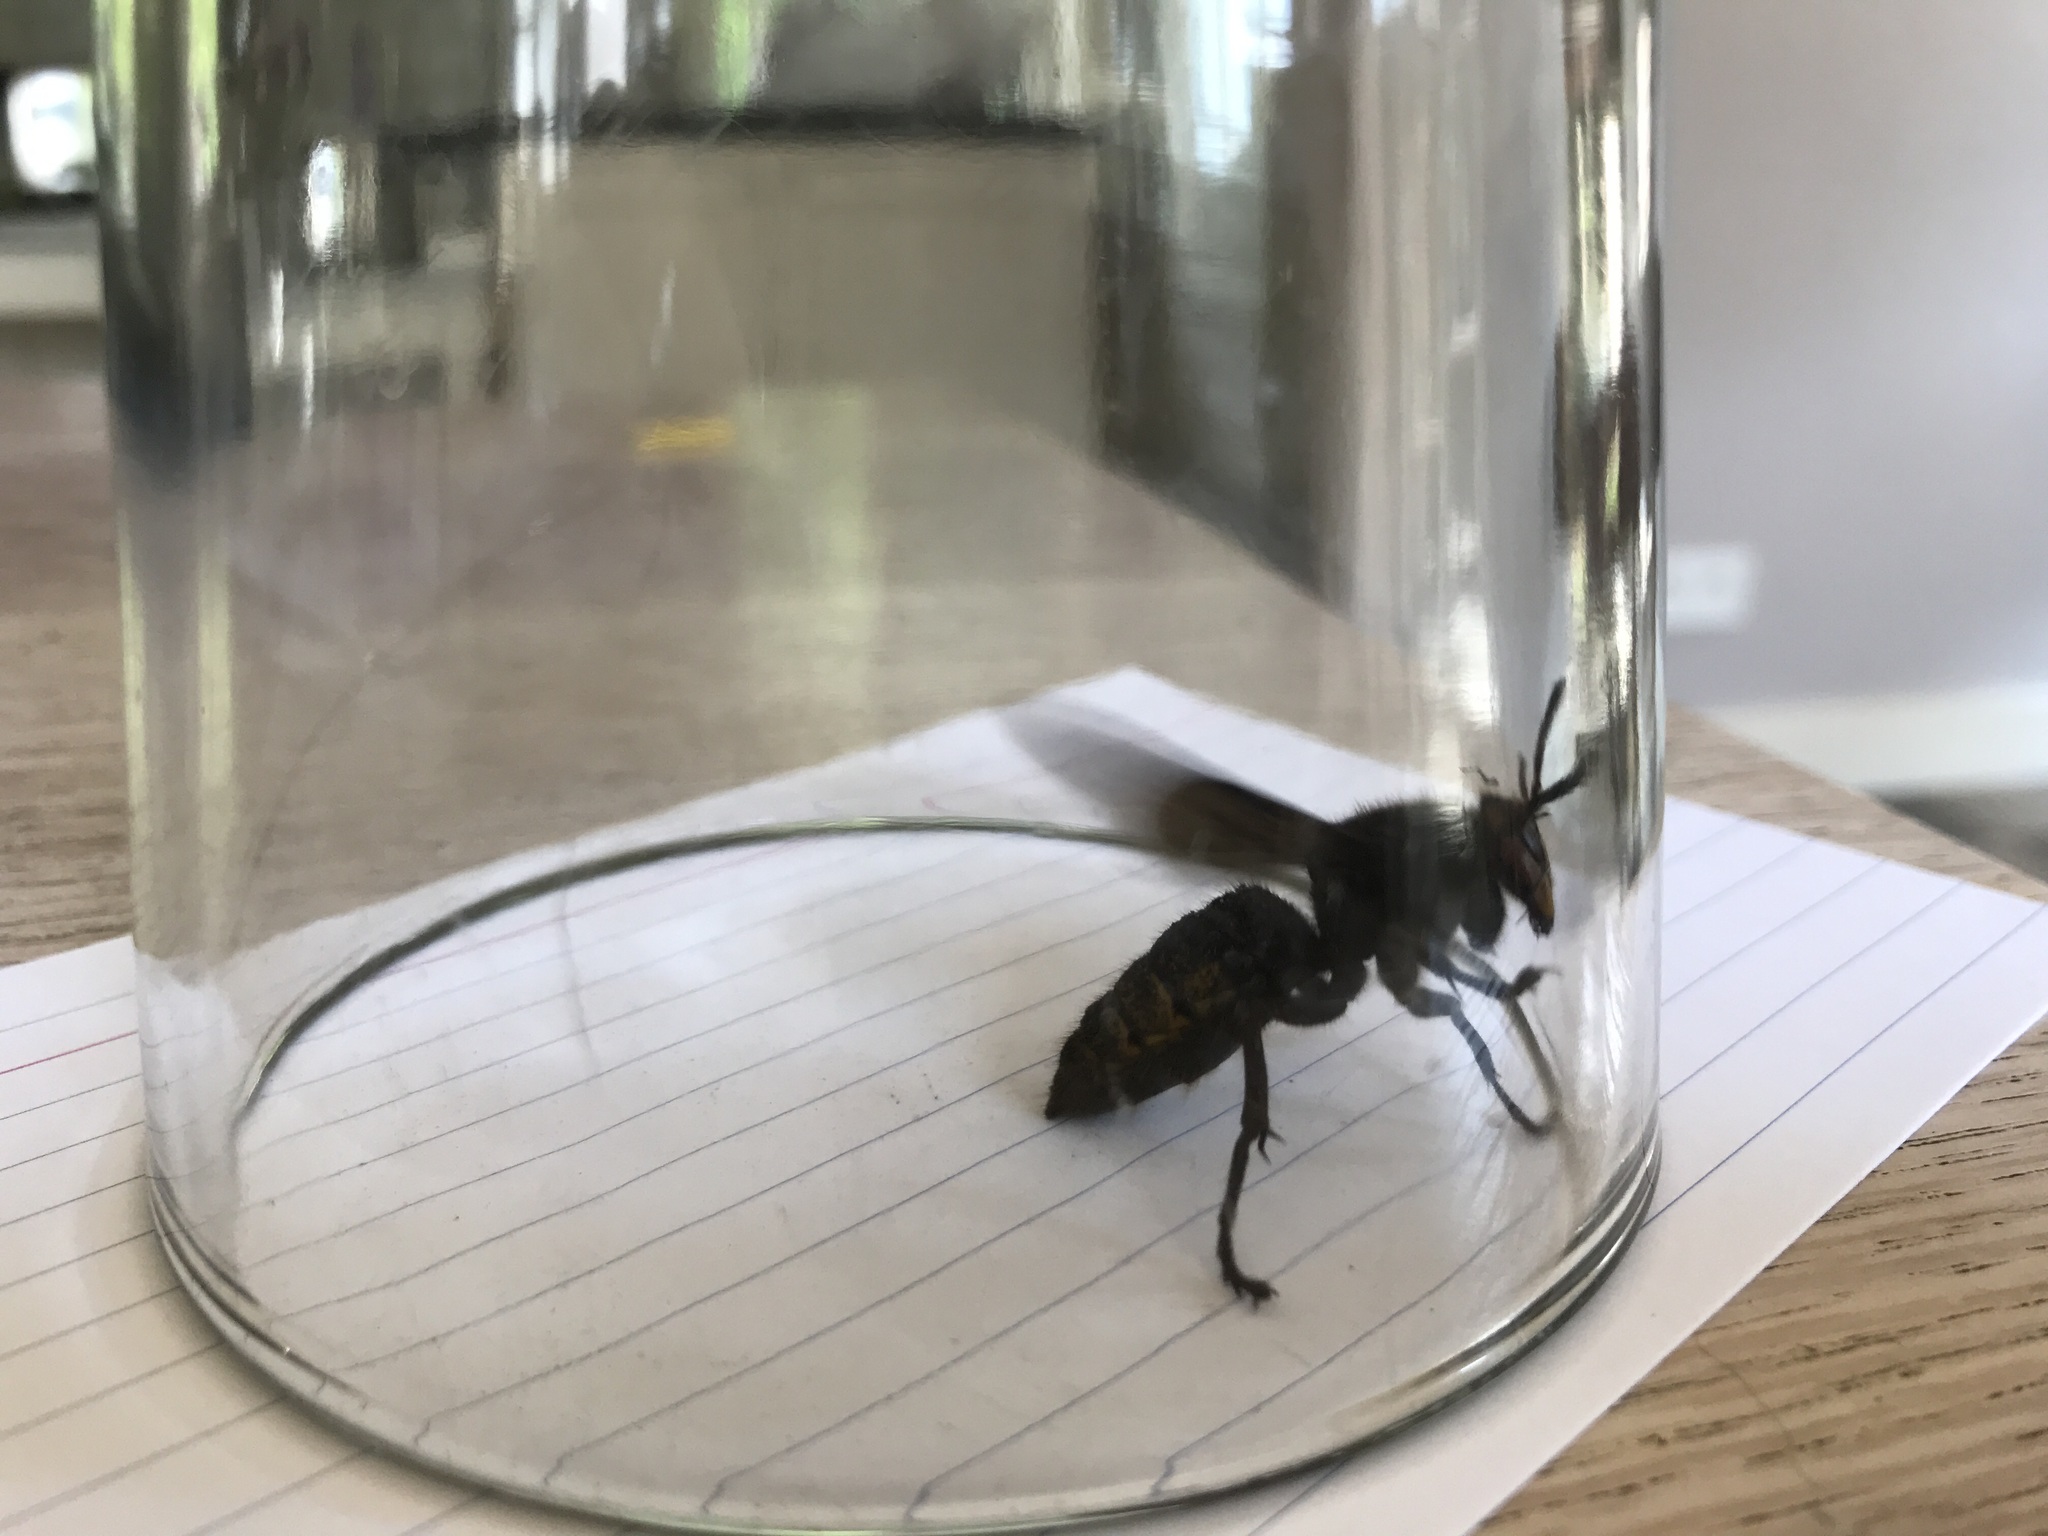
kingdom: Animalia
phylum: Arthropoda
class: Insecta
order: Hymenoptera
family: Vespidae
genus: Vespa
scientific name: Vespa crabro
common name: Hornet
